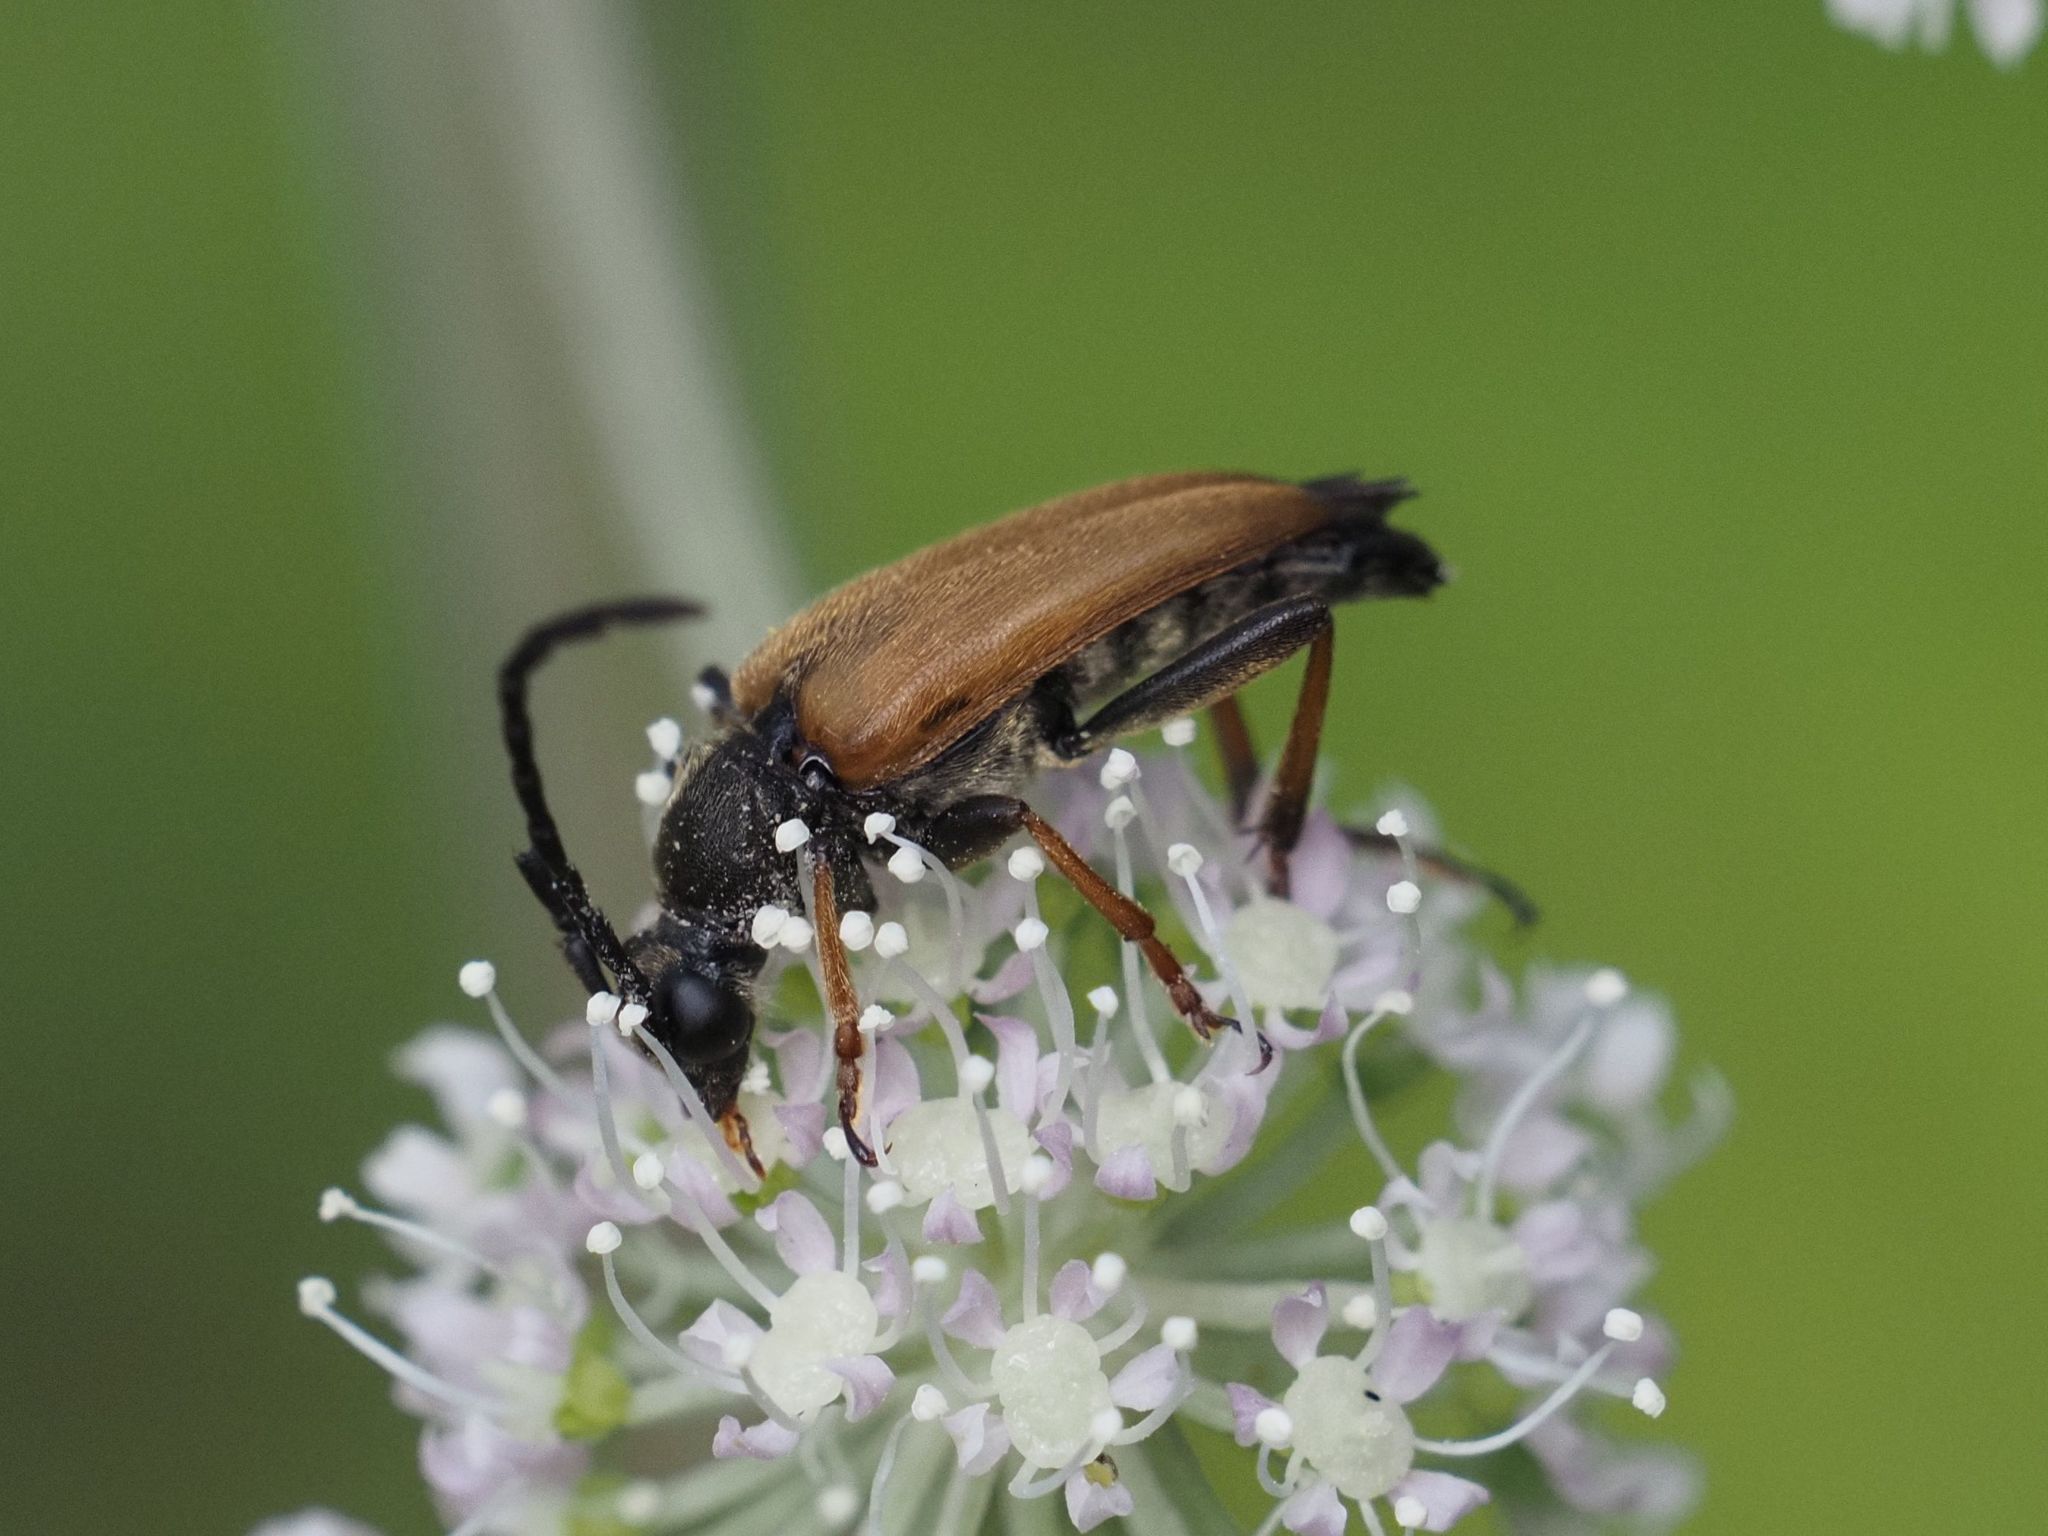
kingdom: Animalia
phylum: Arthropoda
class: Insecta
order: Coleoptera
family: Cerambycidae
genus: Stictoleptura
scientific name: Stictoleptura rubra
